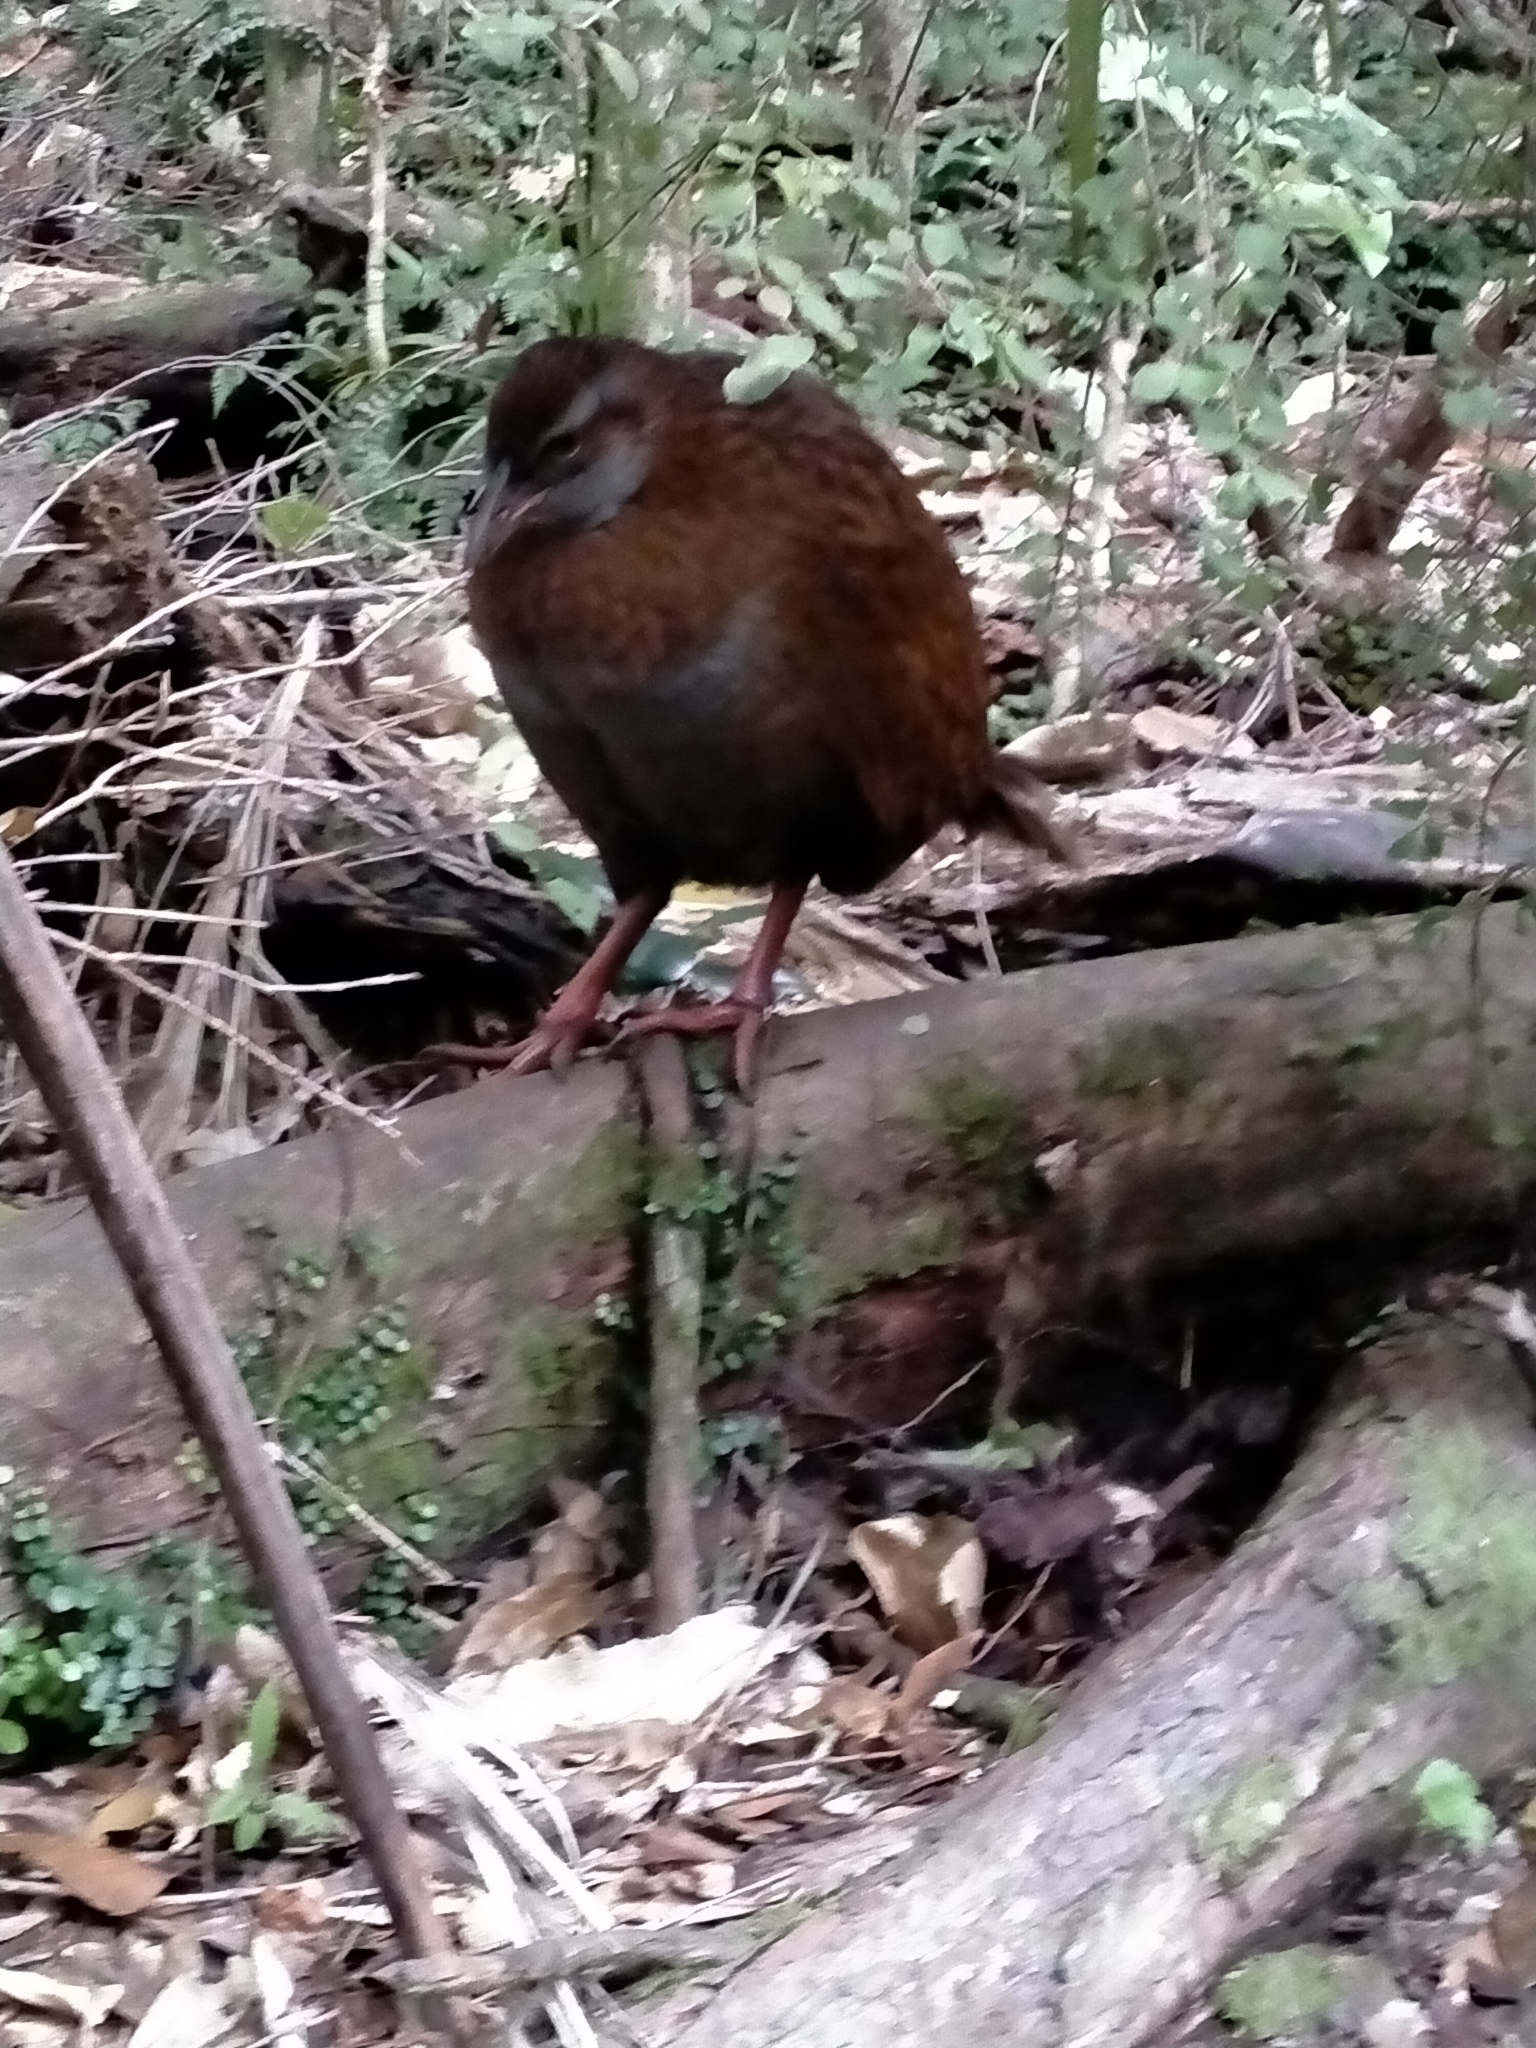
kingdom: Animalia
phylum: Chordata
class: Aves
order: Gruiformes
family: Rallidae
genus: Gallirallus
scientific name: Gallirallus
